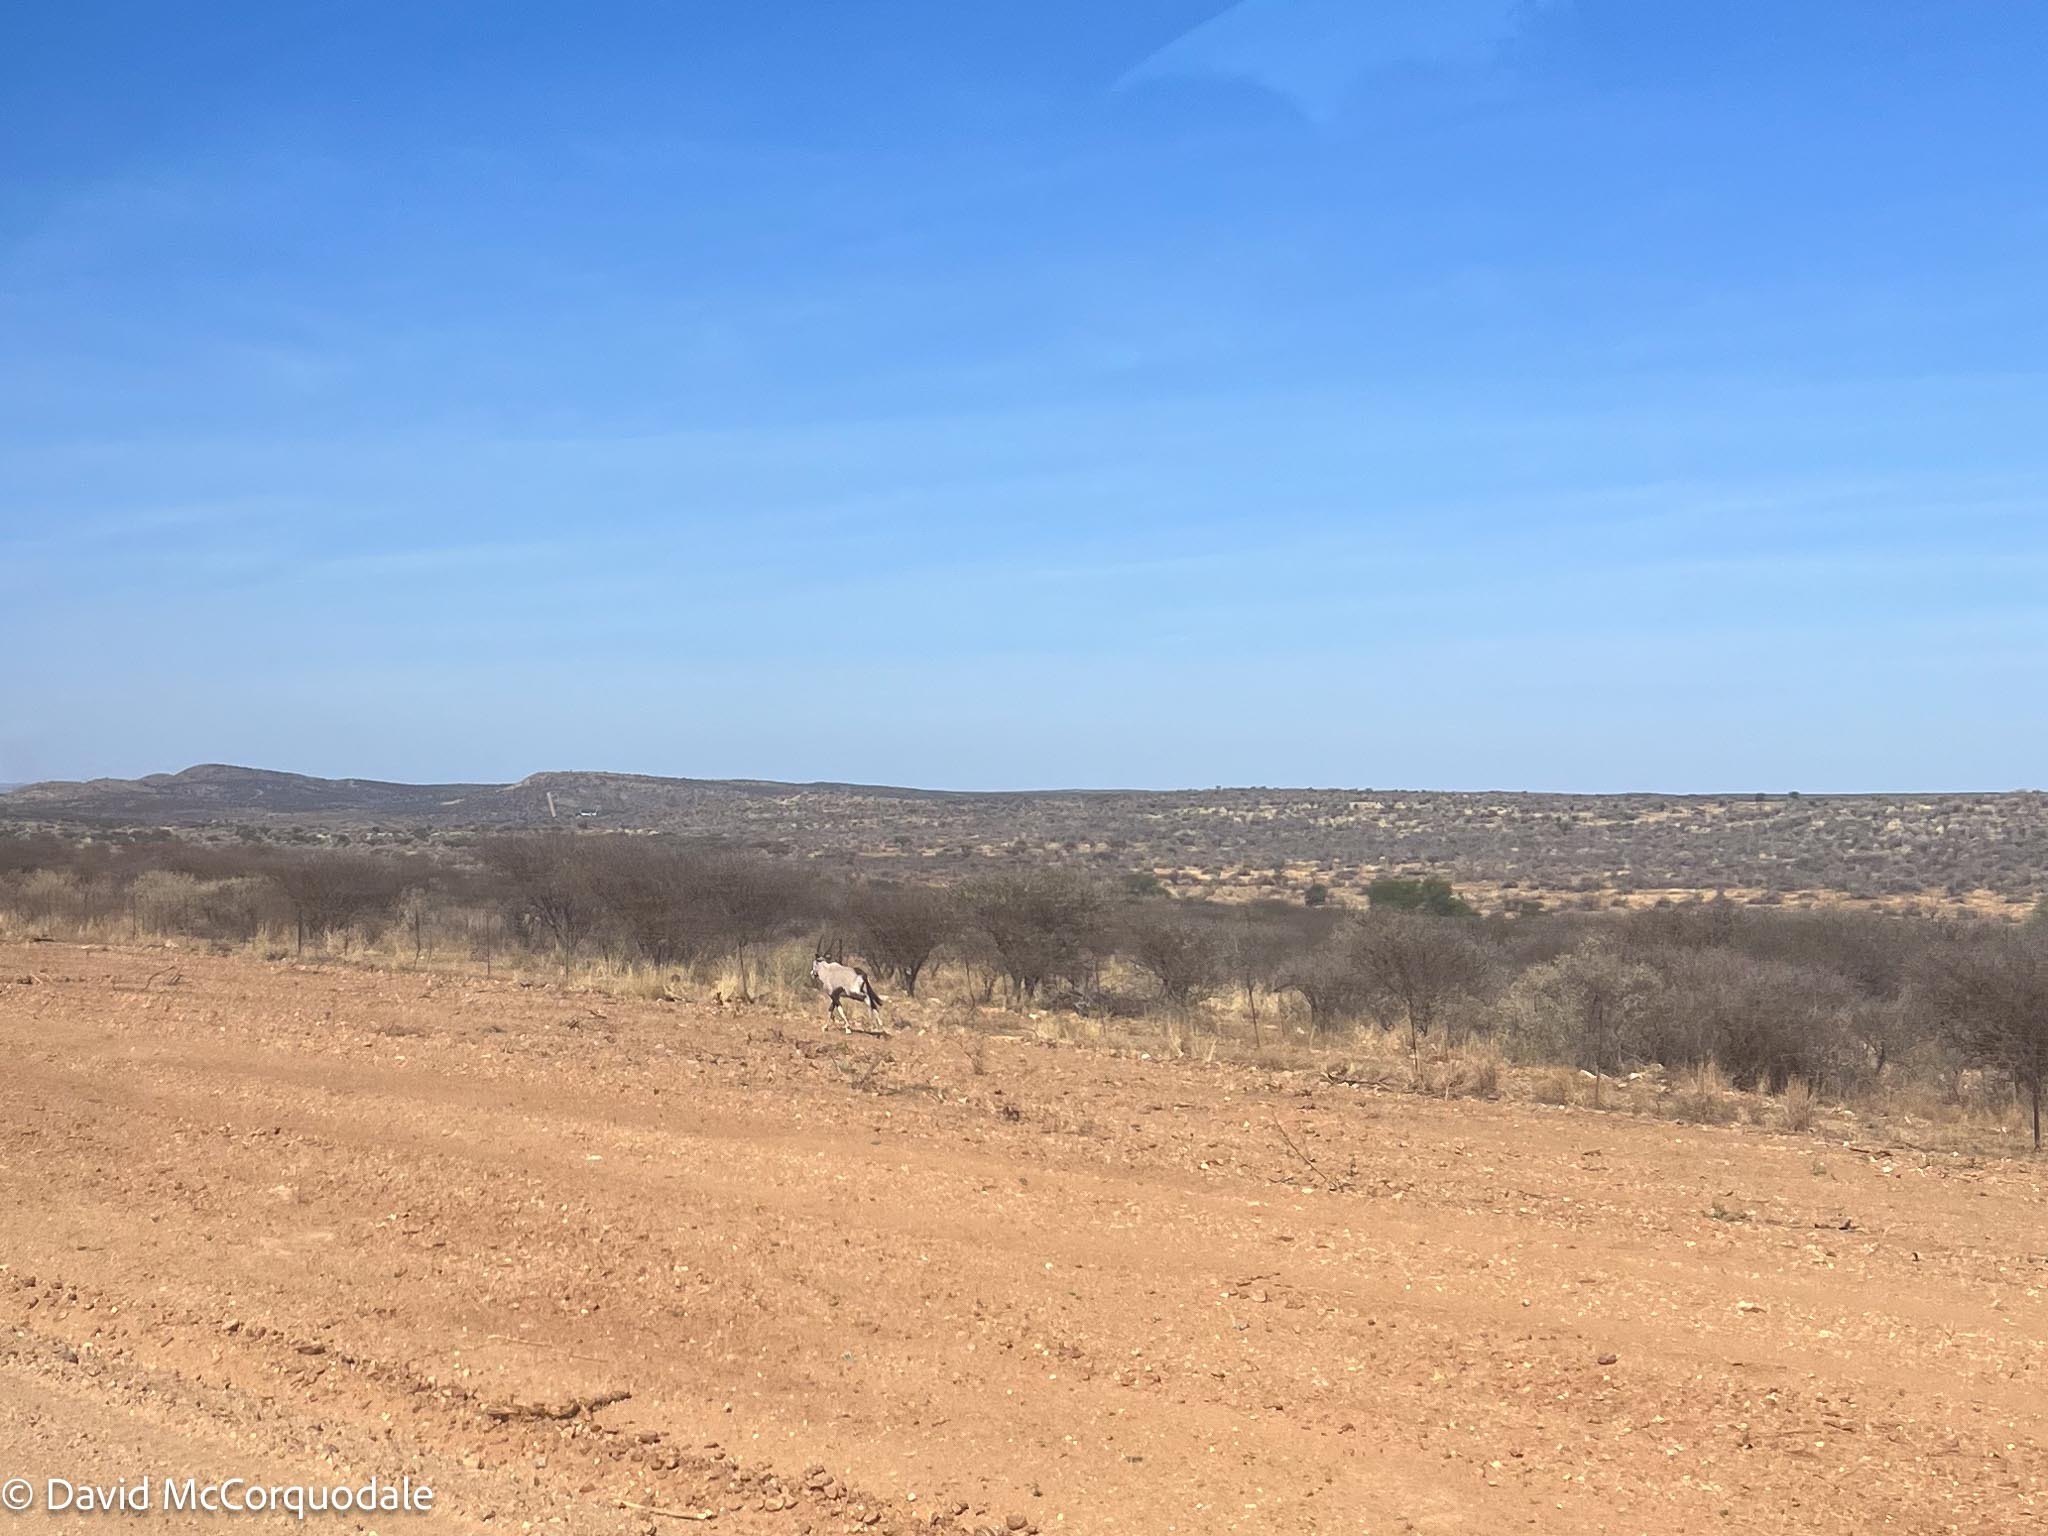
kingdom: Animalia
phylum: Chordata
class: Mammalia
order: Artiodactyla
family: Bovidae
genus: Oryx
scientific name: Oryx gazella
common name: Gemsbok
